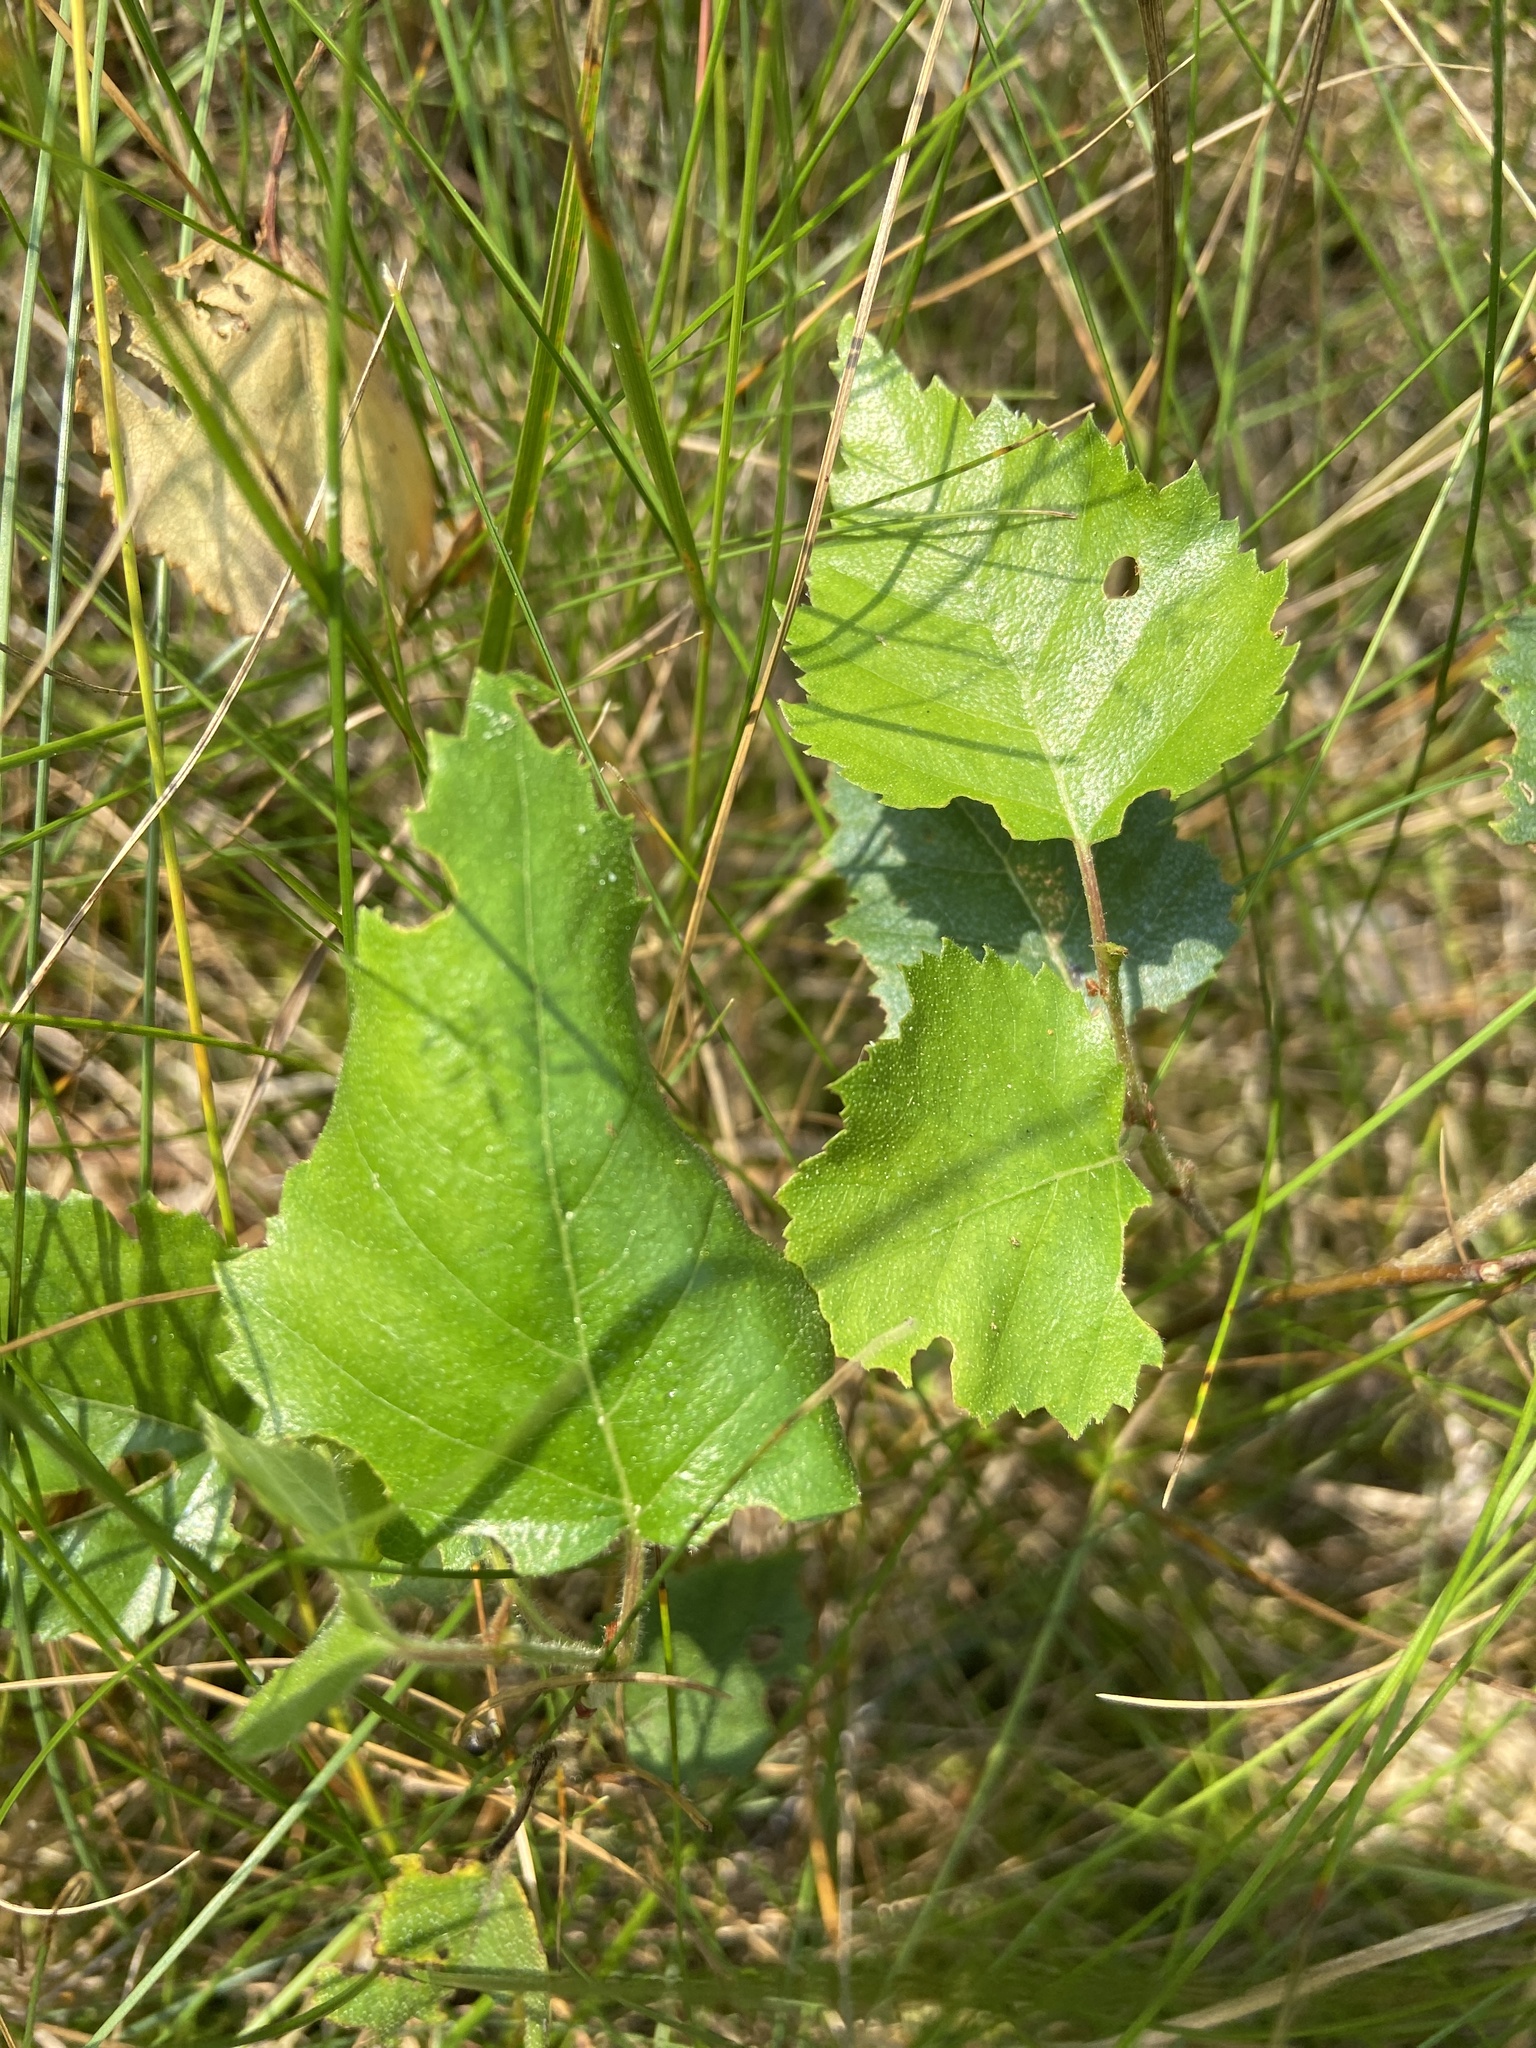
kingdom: Plantae
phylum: Tracheophyta
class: Magnoliopsida
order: Fagales
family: Betulaceae
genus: Betula
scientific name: Betula pendula
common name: Silver birch
